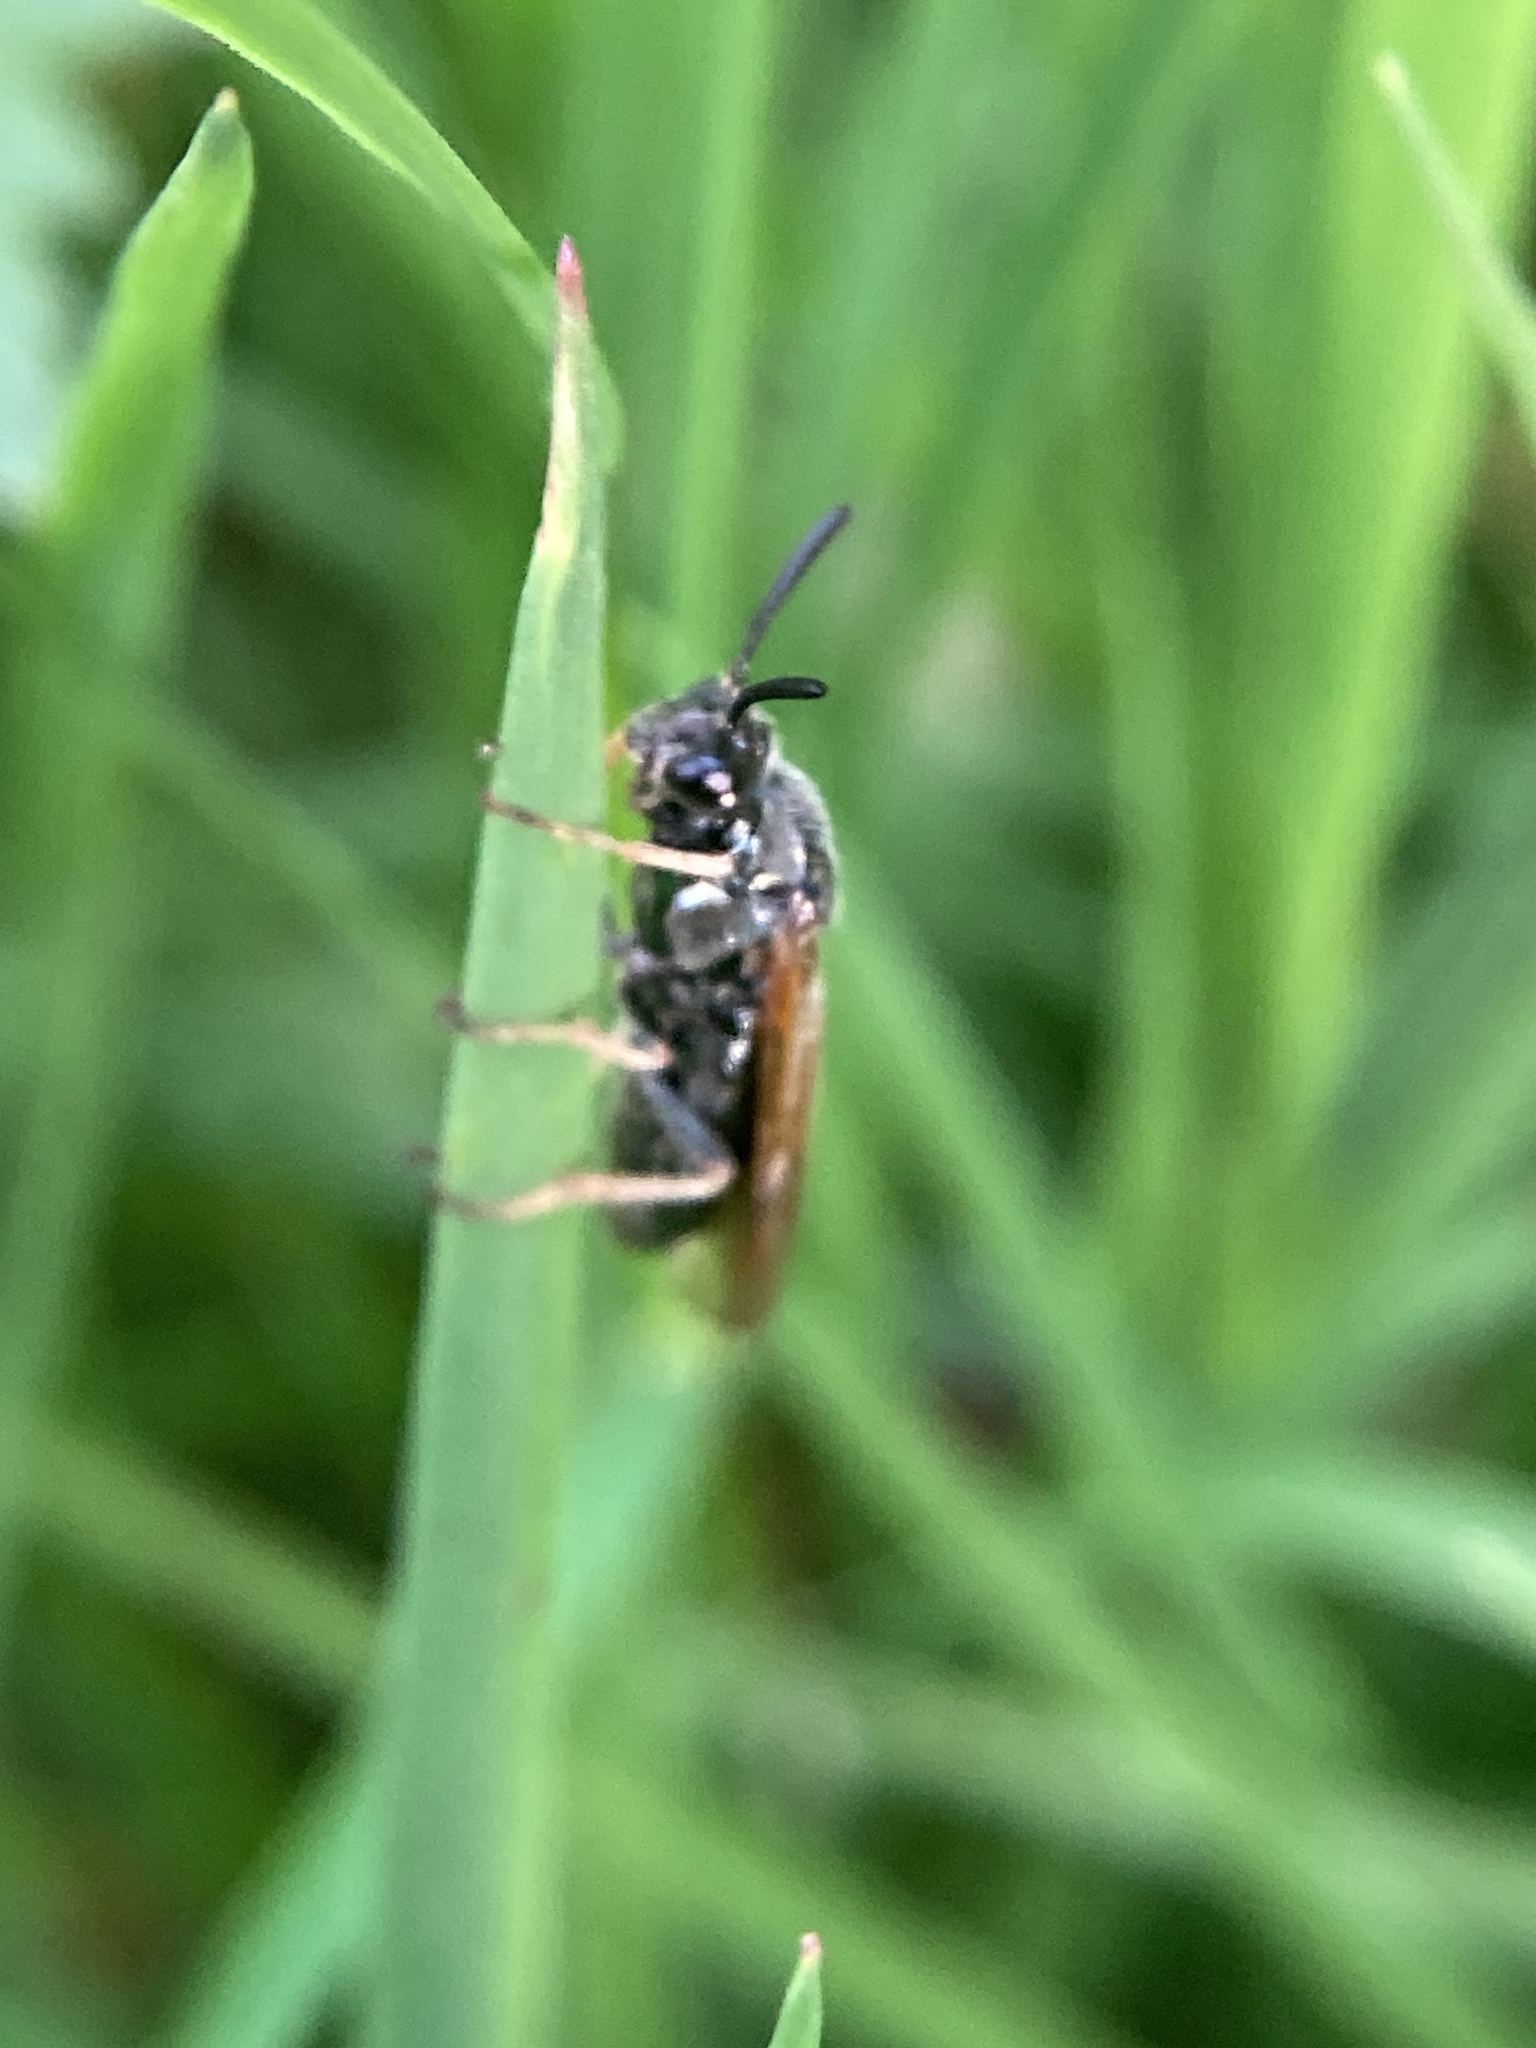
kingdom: Animalia
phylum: Arthropoda
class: Insecta
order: Hymenoptera
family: Argidae
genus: Arge
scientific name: Arge ustulata
